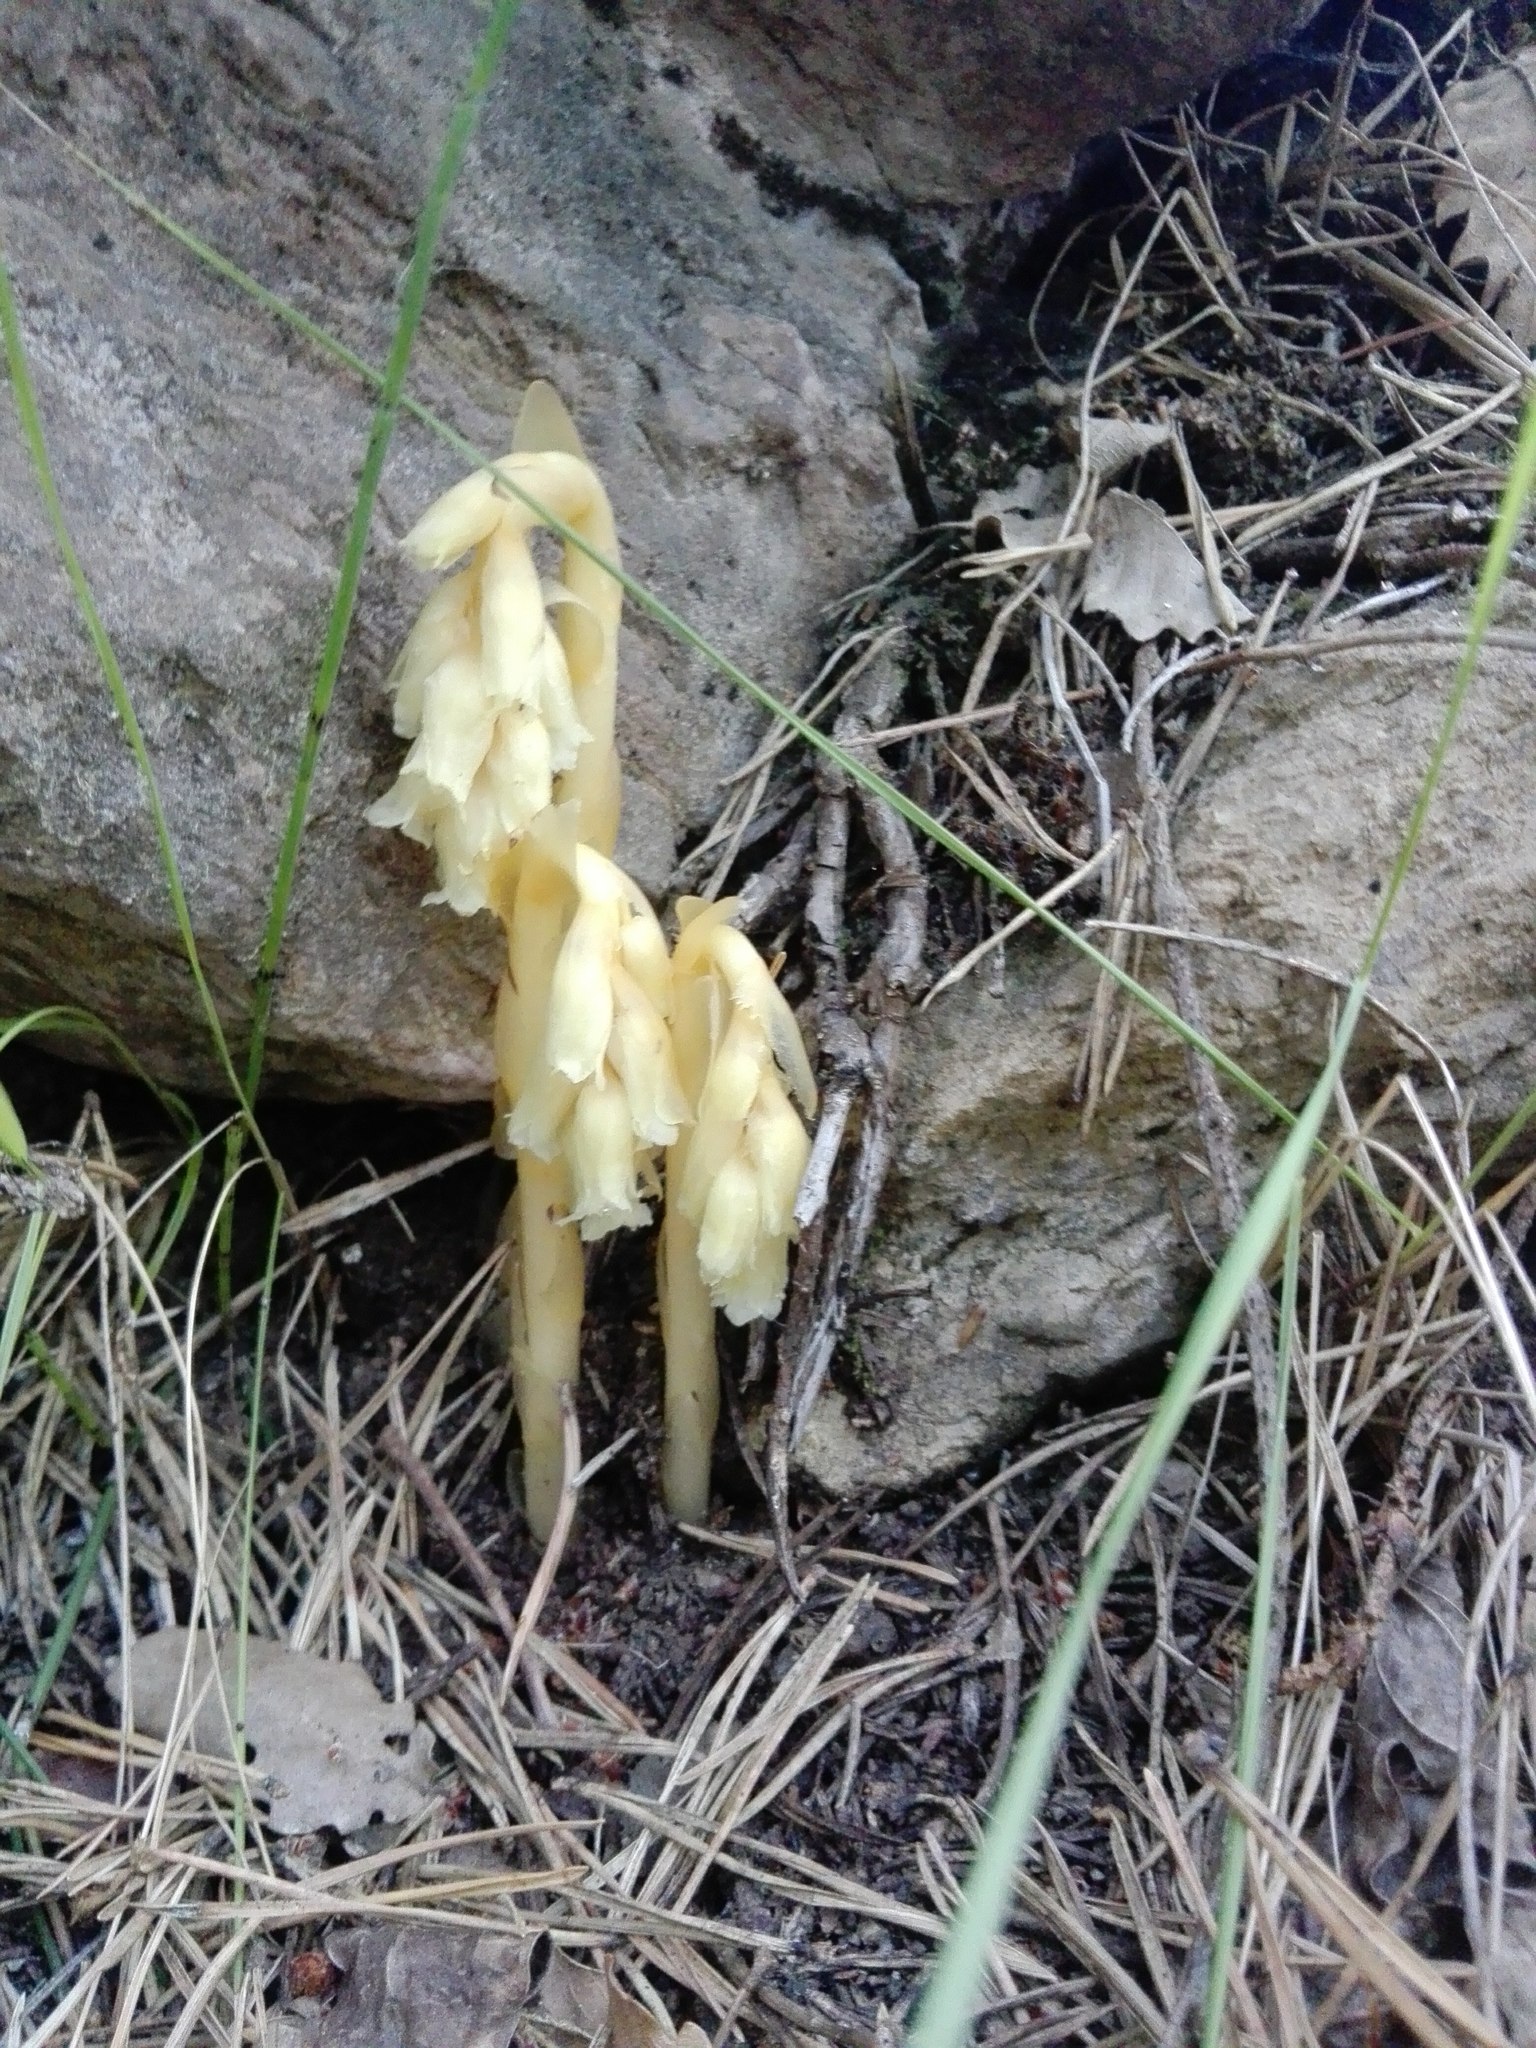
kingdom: Plantae
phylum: Tracheophyta
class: Magnoliopsida
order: Ericales
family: Ericaceae
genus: Hypopitys
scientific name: Hypopitys monotropa
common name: Yellow bird's-nest
